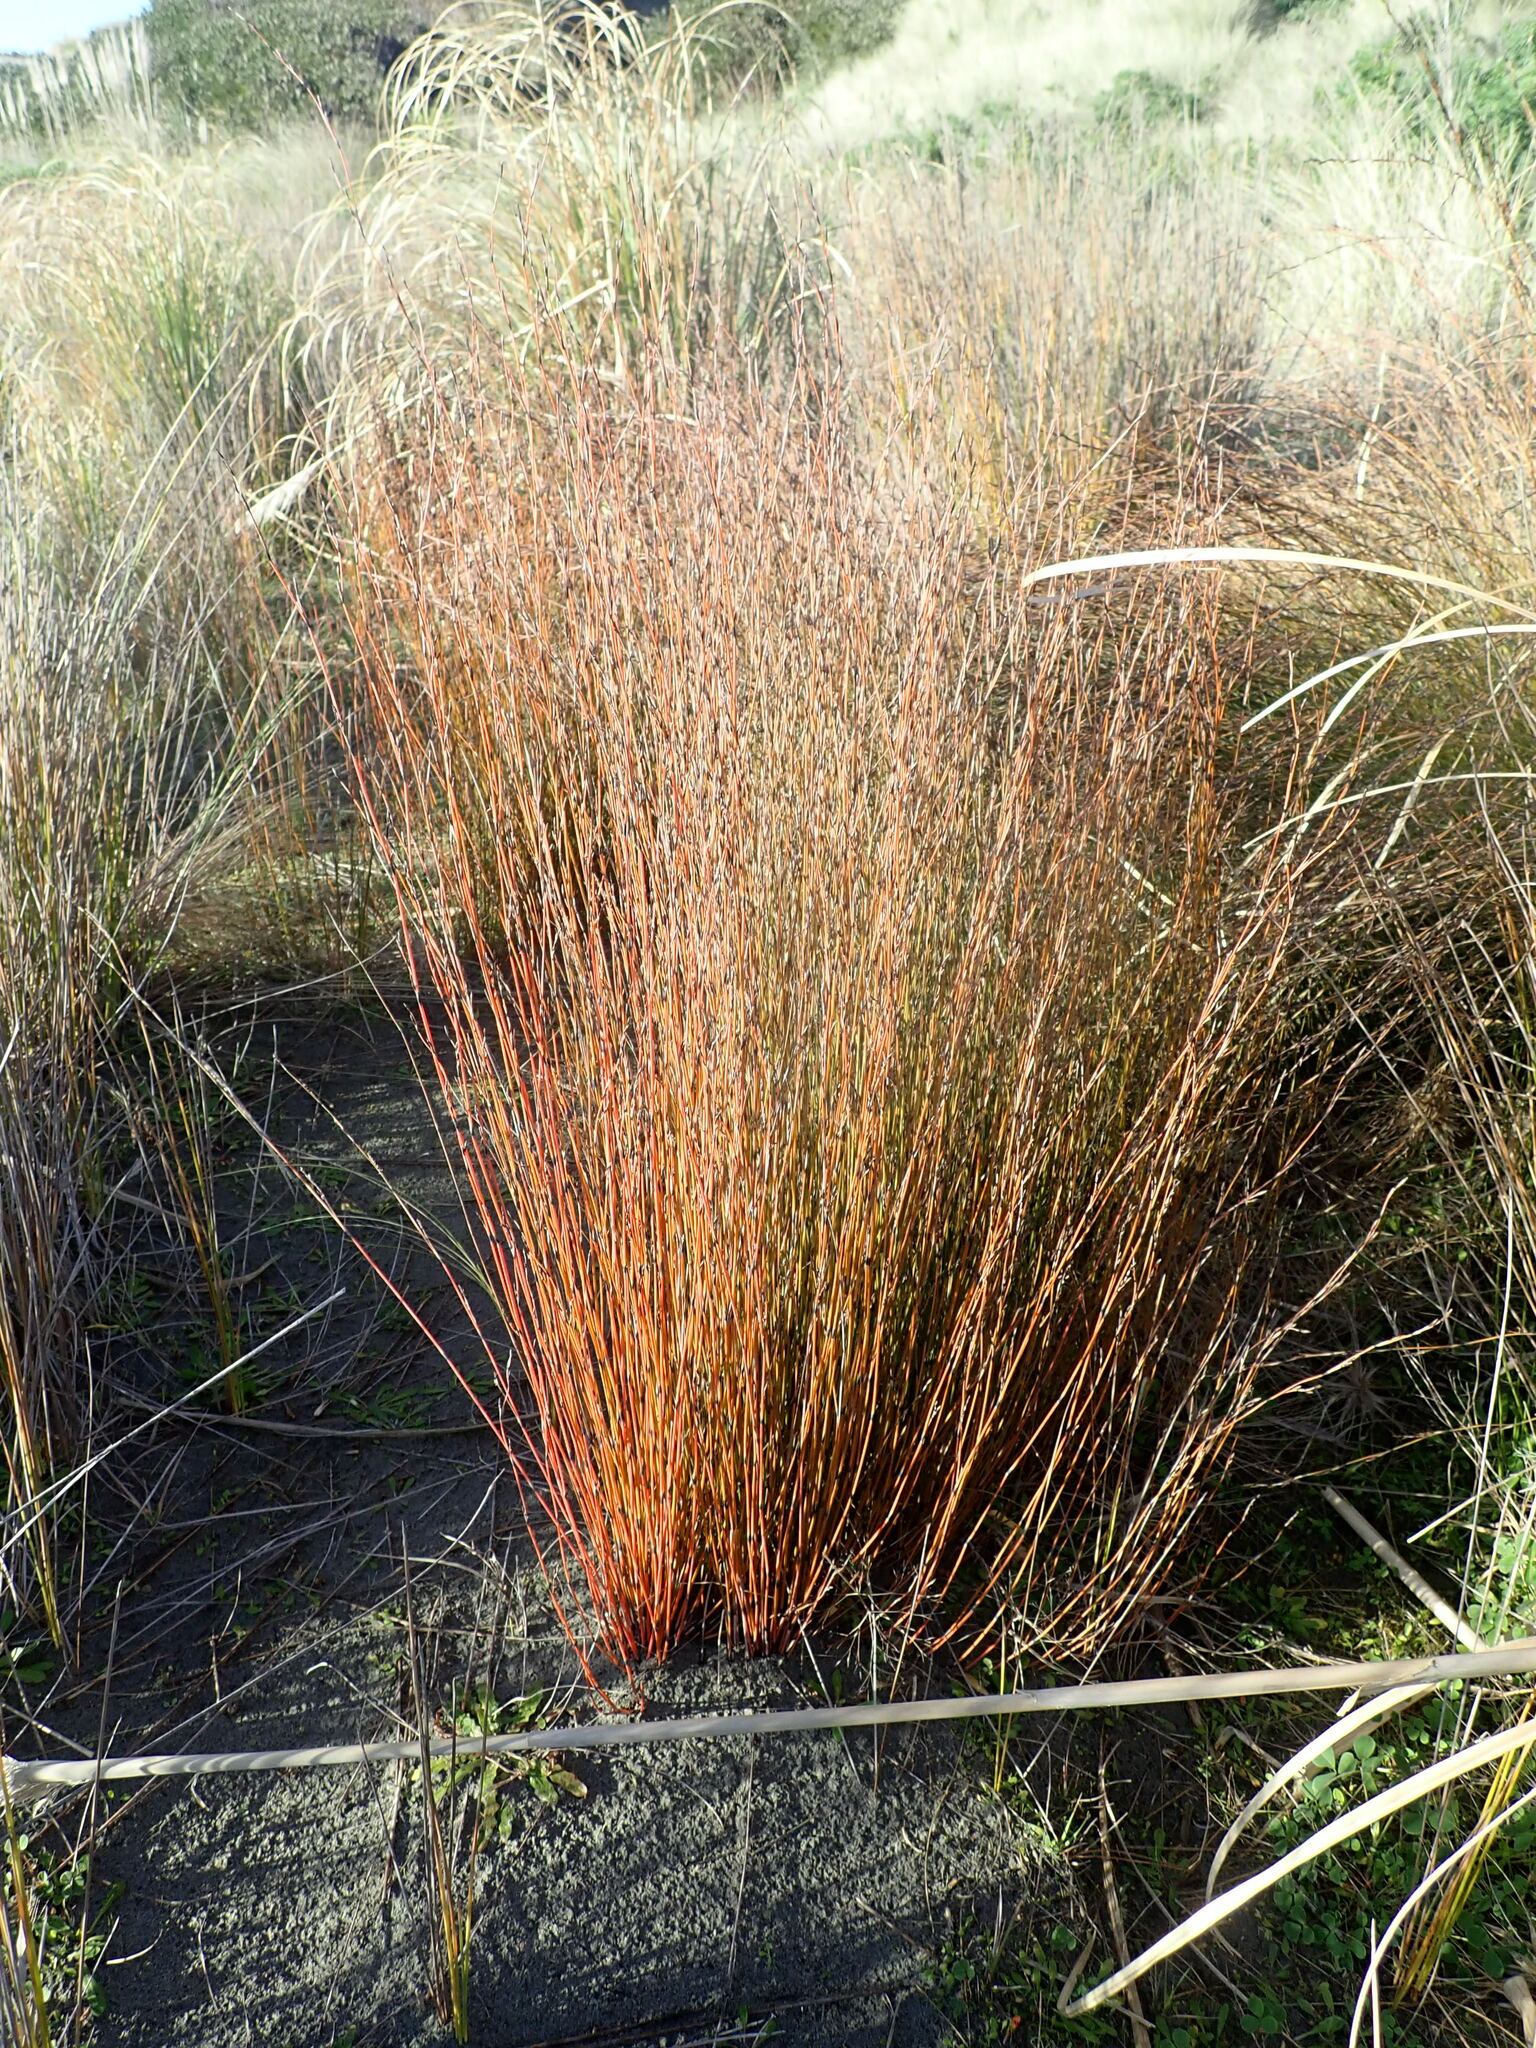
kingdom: Plantae
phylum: Tracheophyta
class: Liliopsida
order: Poales
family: Restionaceae
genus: Apodasmia
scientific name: Apodasmia similis
